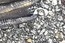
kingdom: Animalia
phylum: Chordata
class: Aves
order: Anseriformes
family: Anatidae
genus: Cairina
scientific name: Cairina moschata
